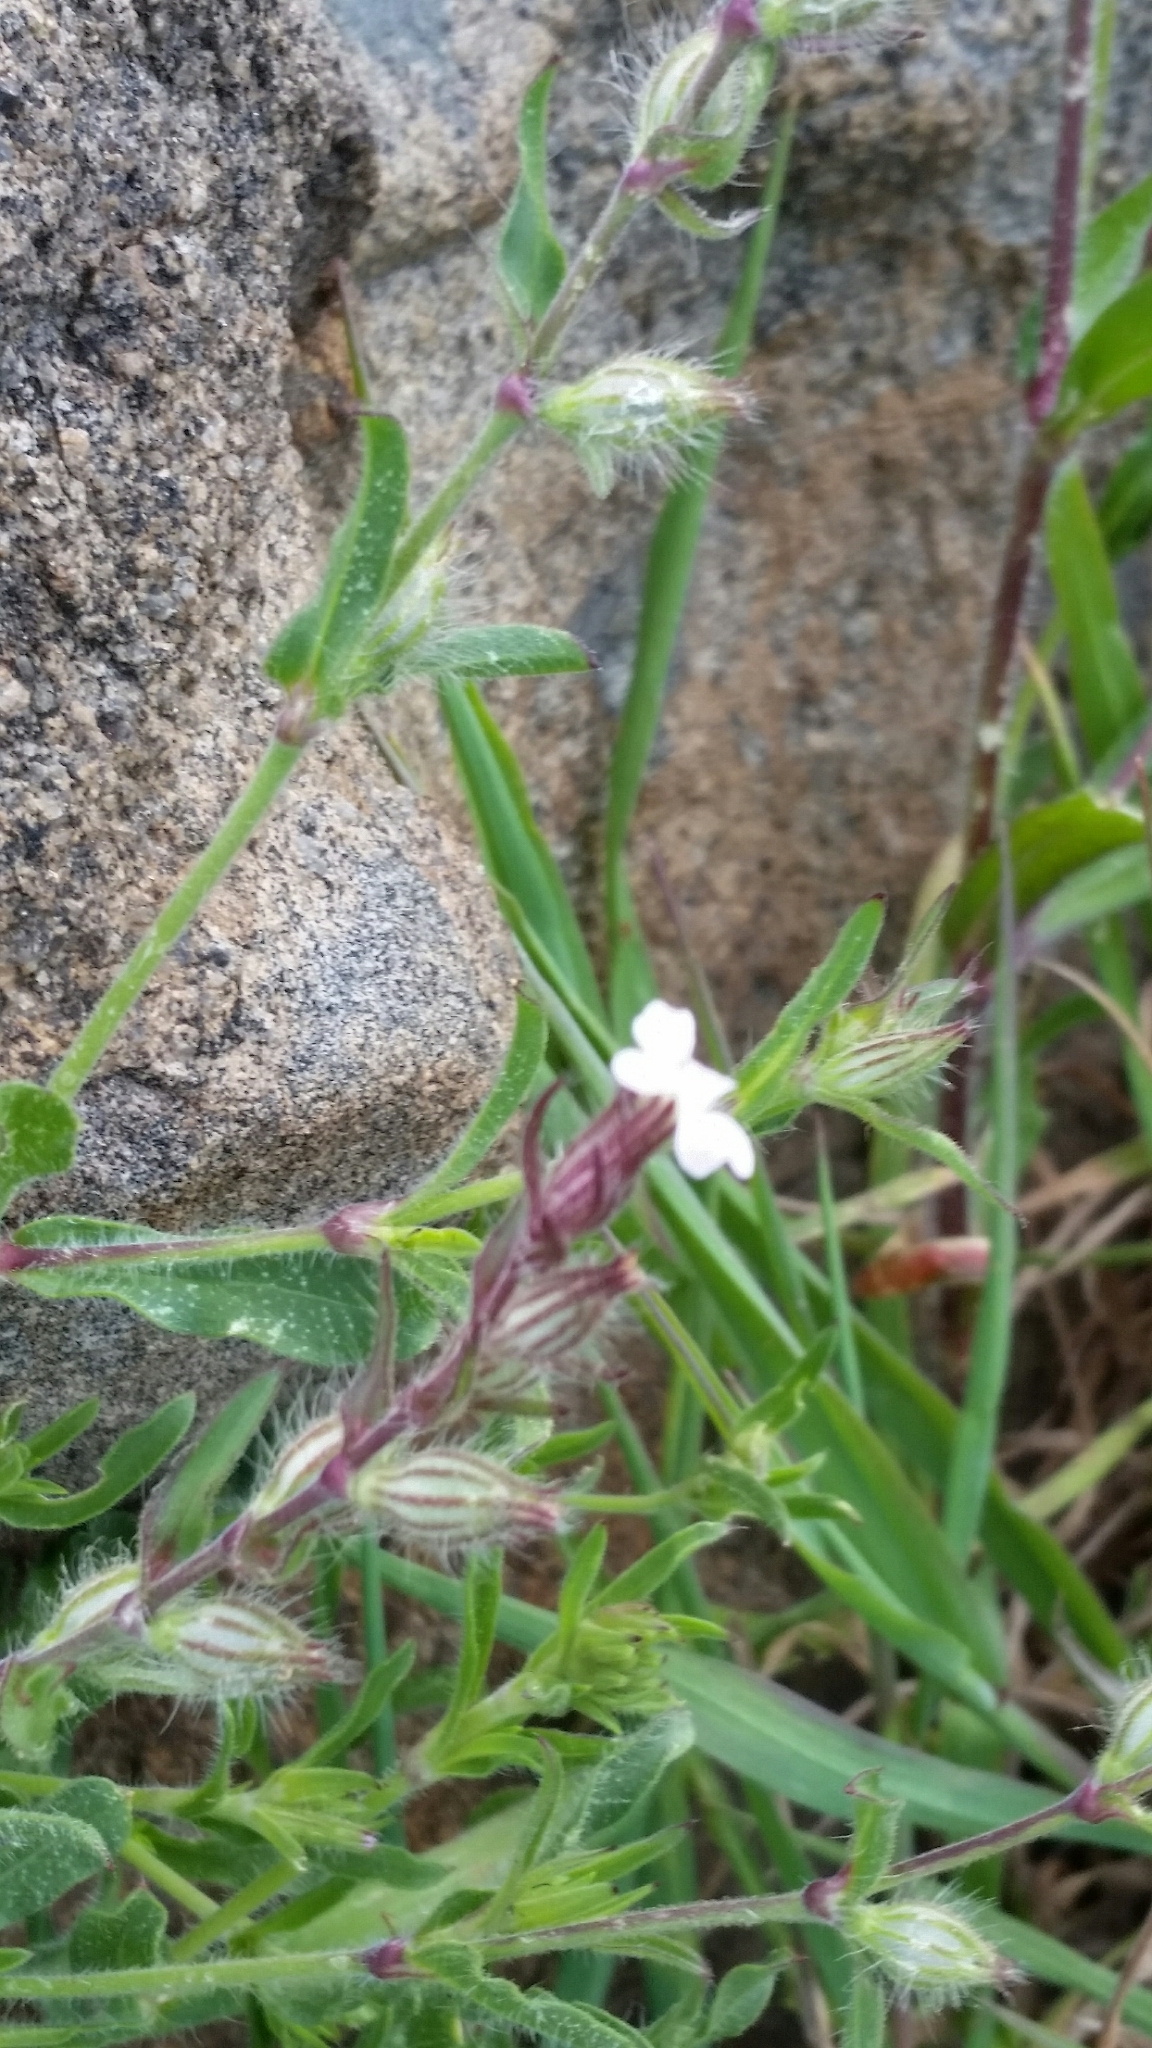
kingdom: Plantae
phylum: Tracheophyta
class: Magnoliopsida
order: Caryophyllales
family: Caryophyllaceae
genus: Silene
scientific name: Silene gallica
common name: Small-flowered catchfly
